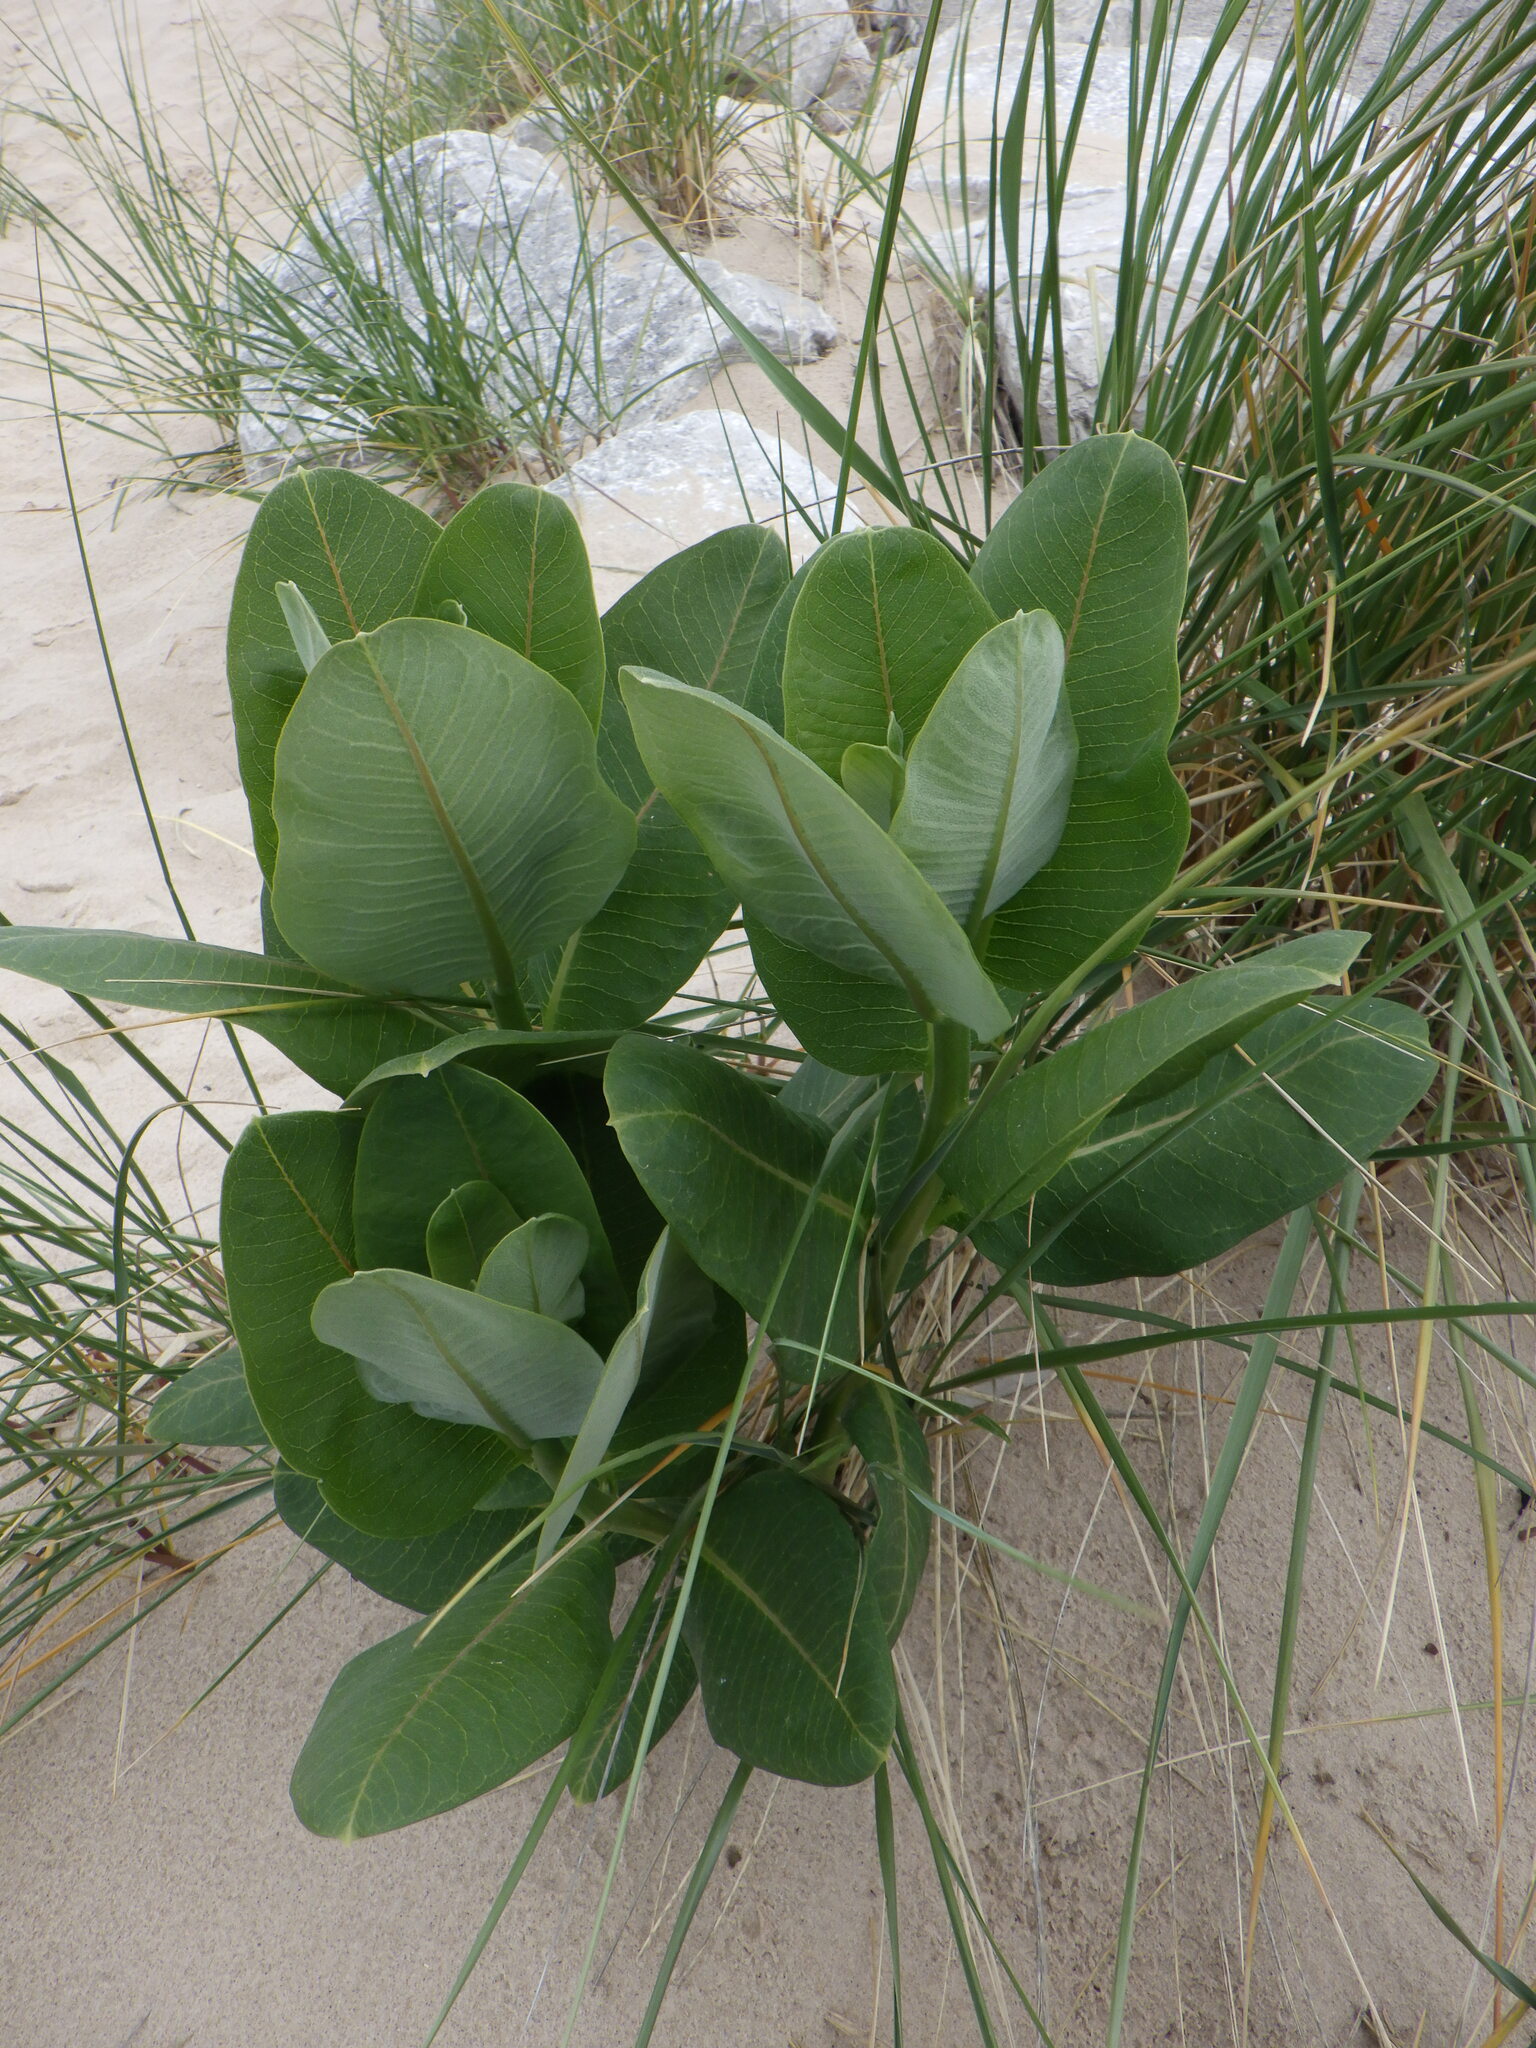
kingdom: Plantae
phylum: Tracheophyta
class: Magnoliopsida
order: Gentianales
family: Apocynaceae
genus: Asclepias
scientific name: Asclepias syriaca
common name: Common milkweed
